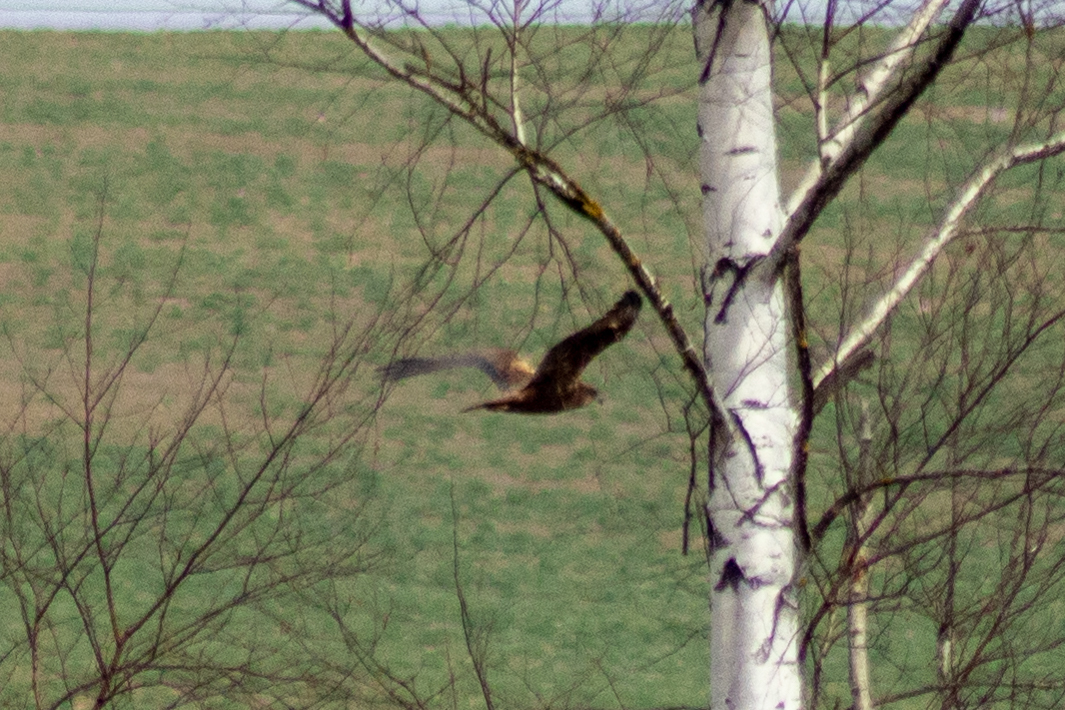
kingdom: Animalia
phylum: Chordata
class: Aves
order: Accipitriformes
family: Accipitridae
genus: Circus
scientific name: Circus aeruginosus
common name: Western marsh harrier
